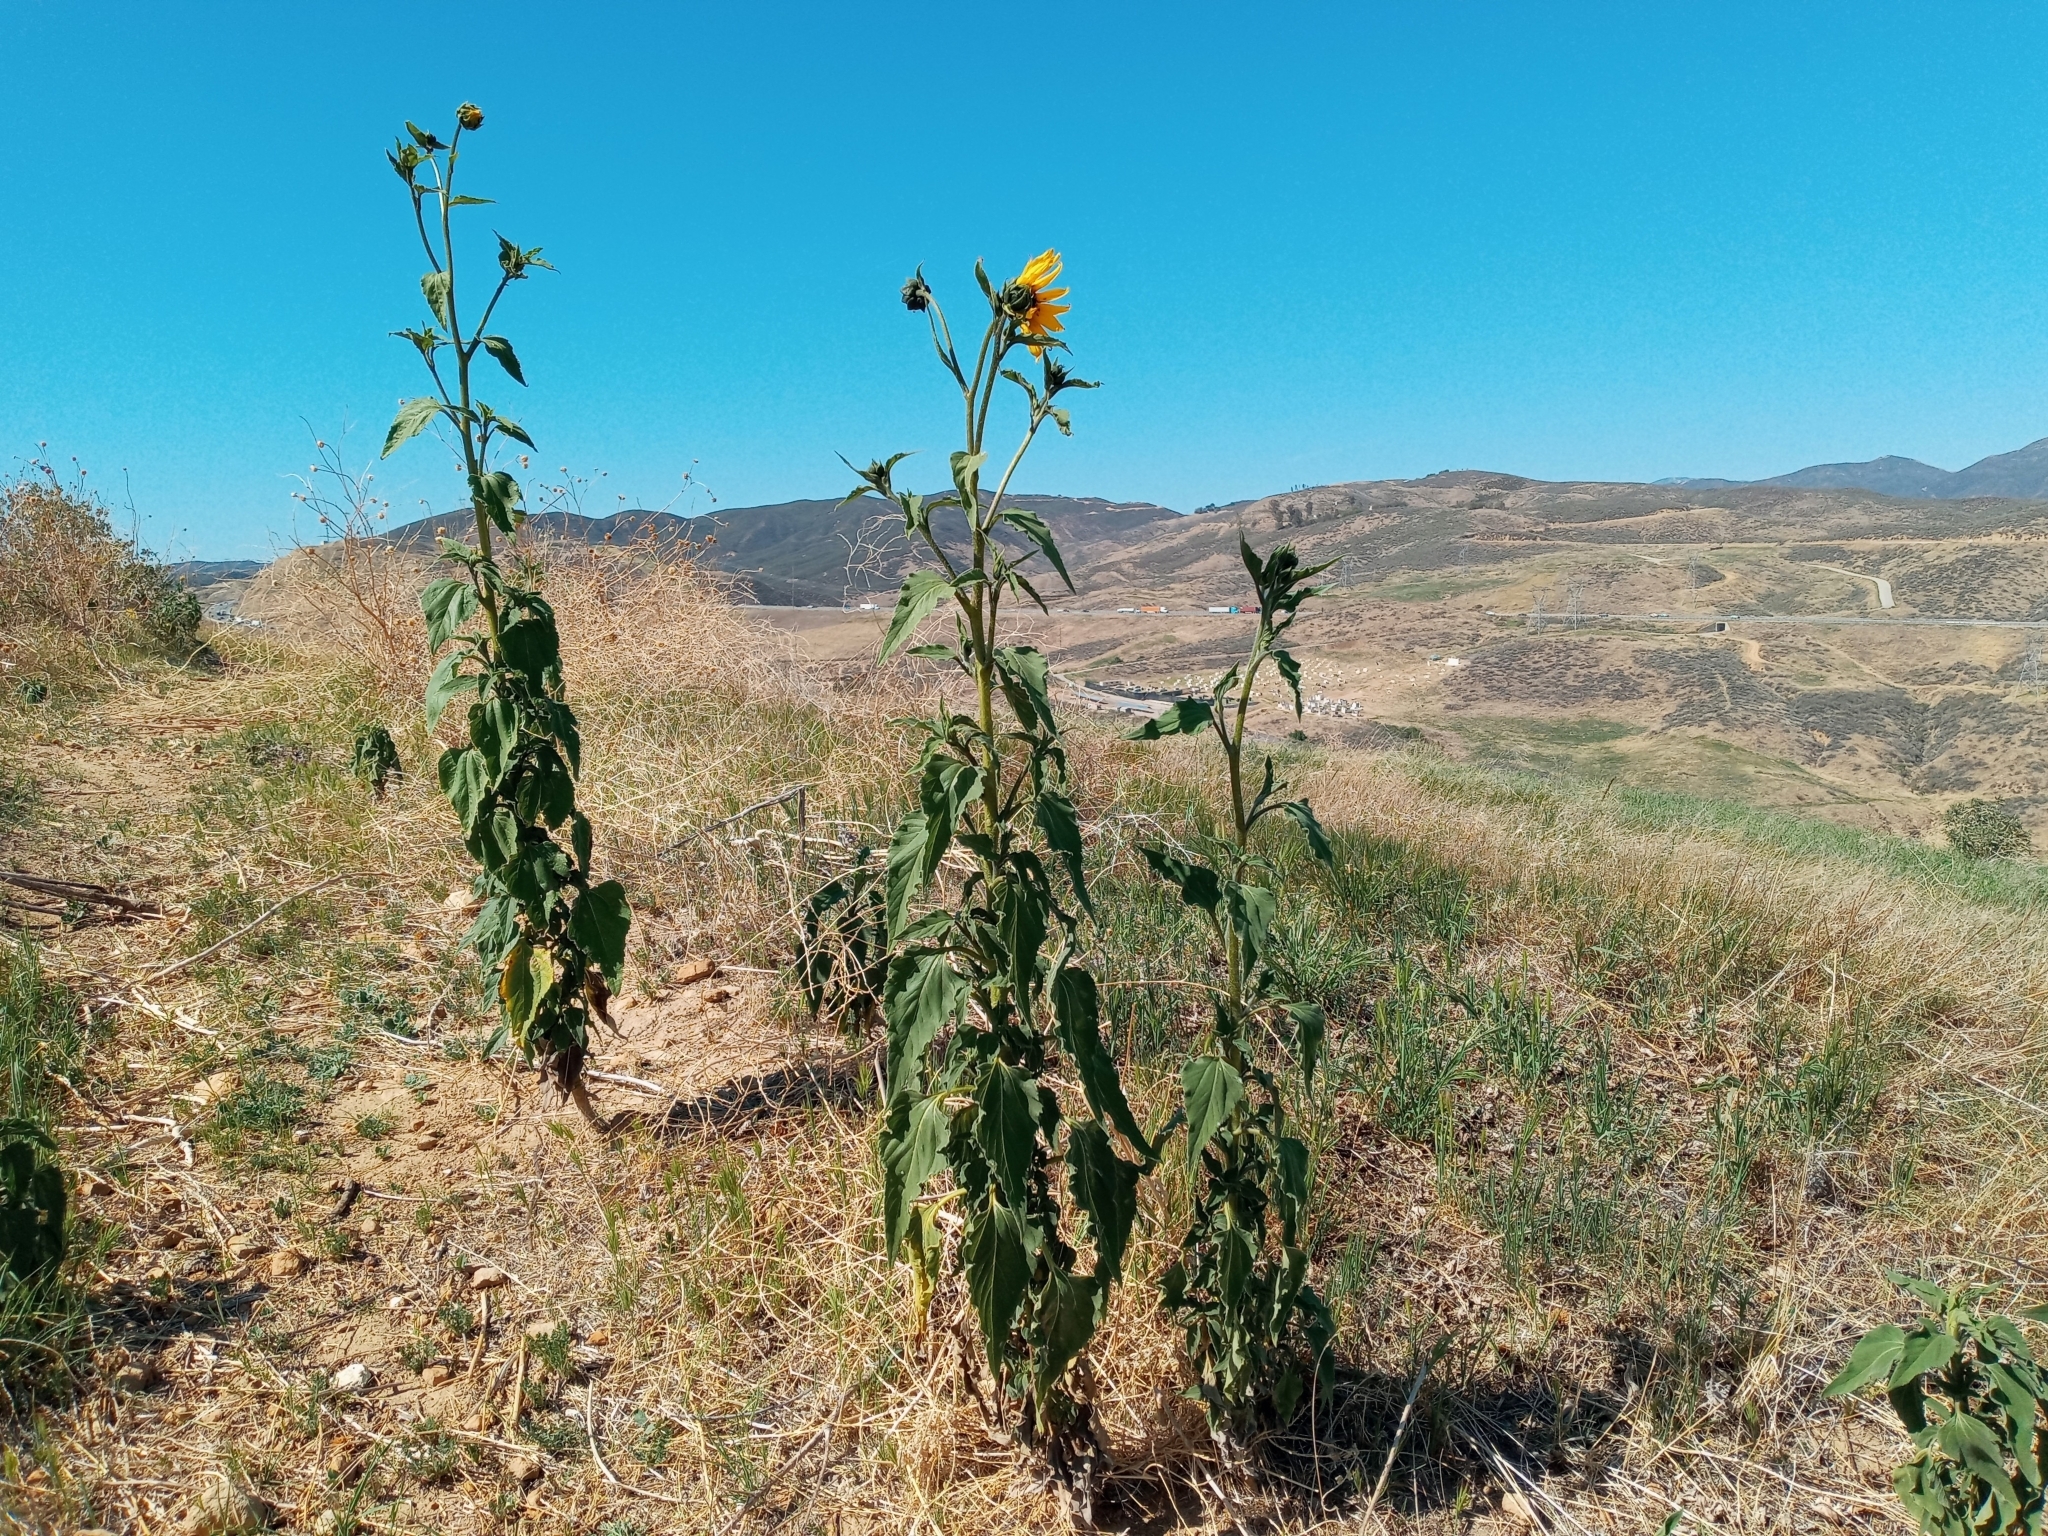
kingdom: Plantae
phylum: Tracheophyta
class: Magnoliopsida
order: Asterales
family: Asteraceae
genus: Helianthus
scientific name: Helianthus annuus
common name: Sunflower
